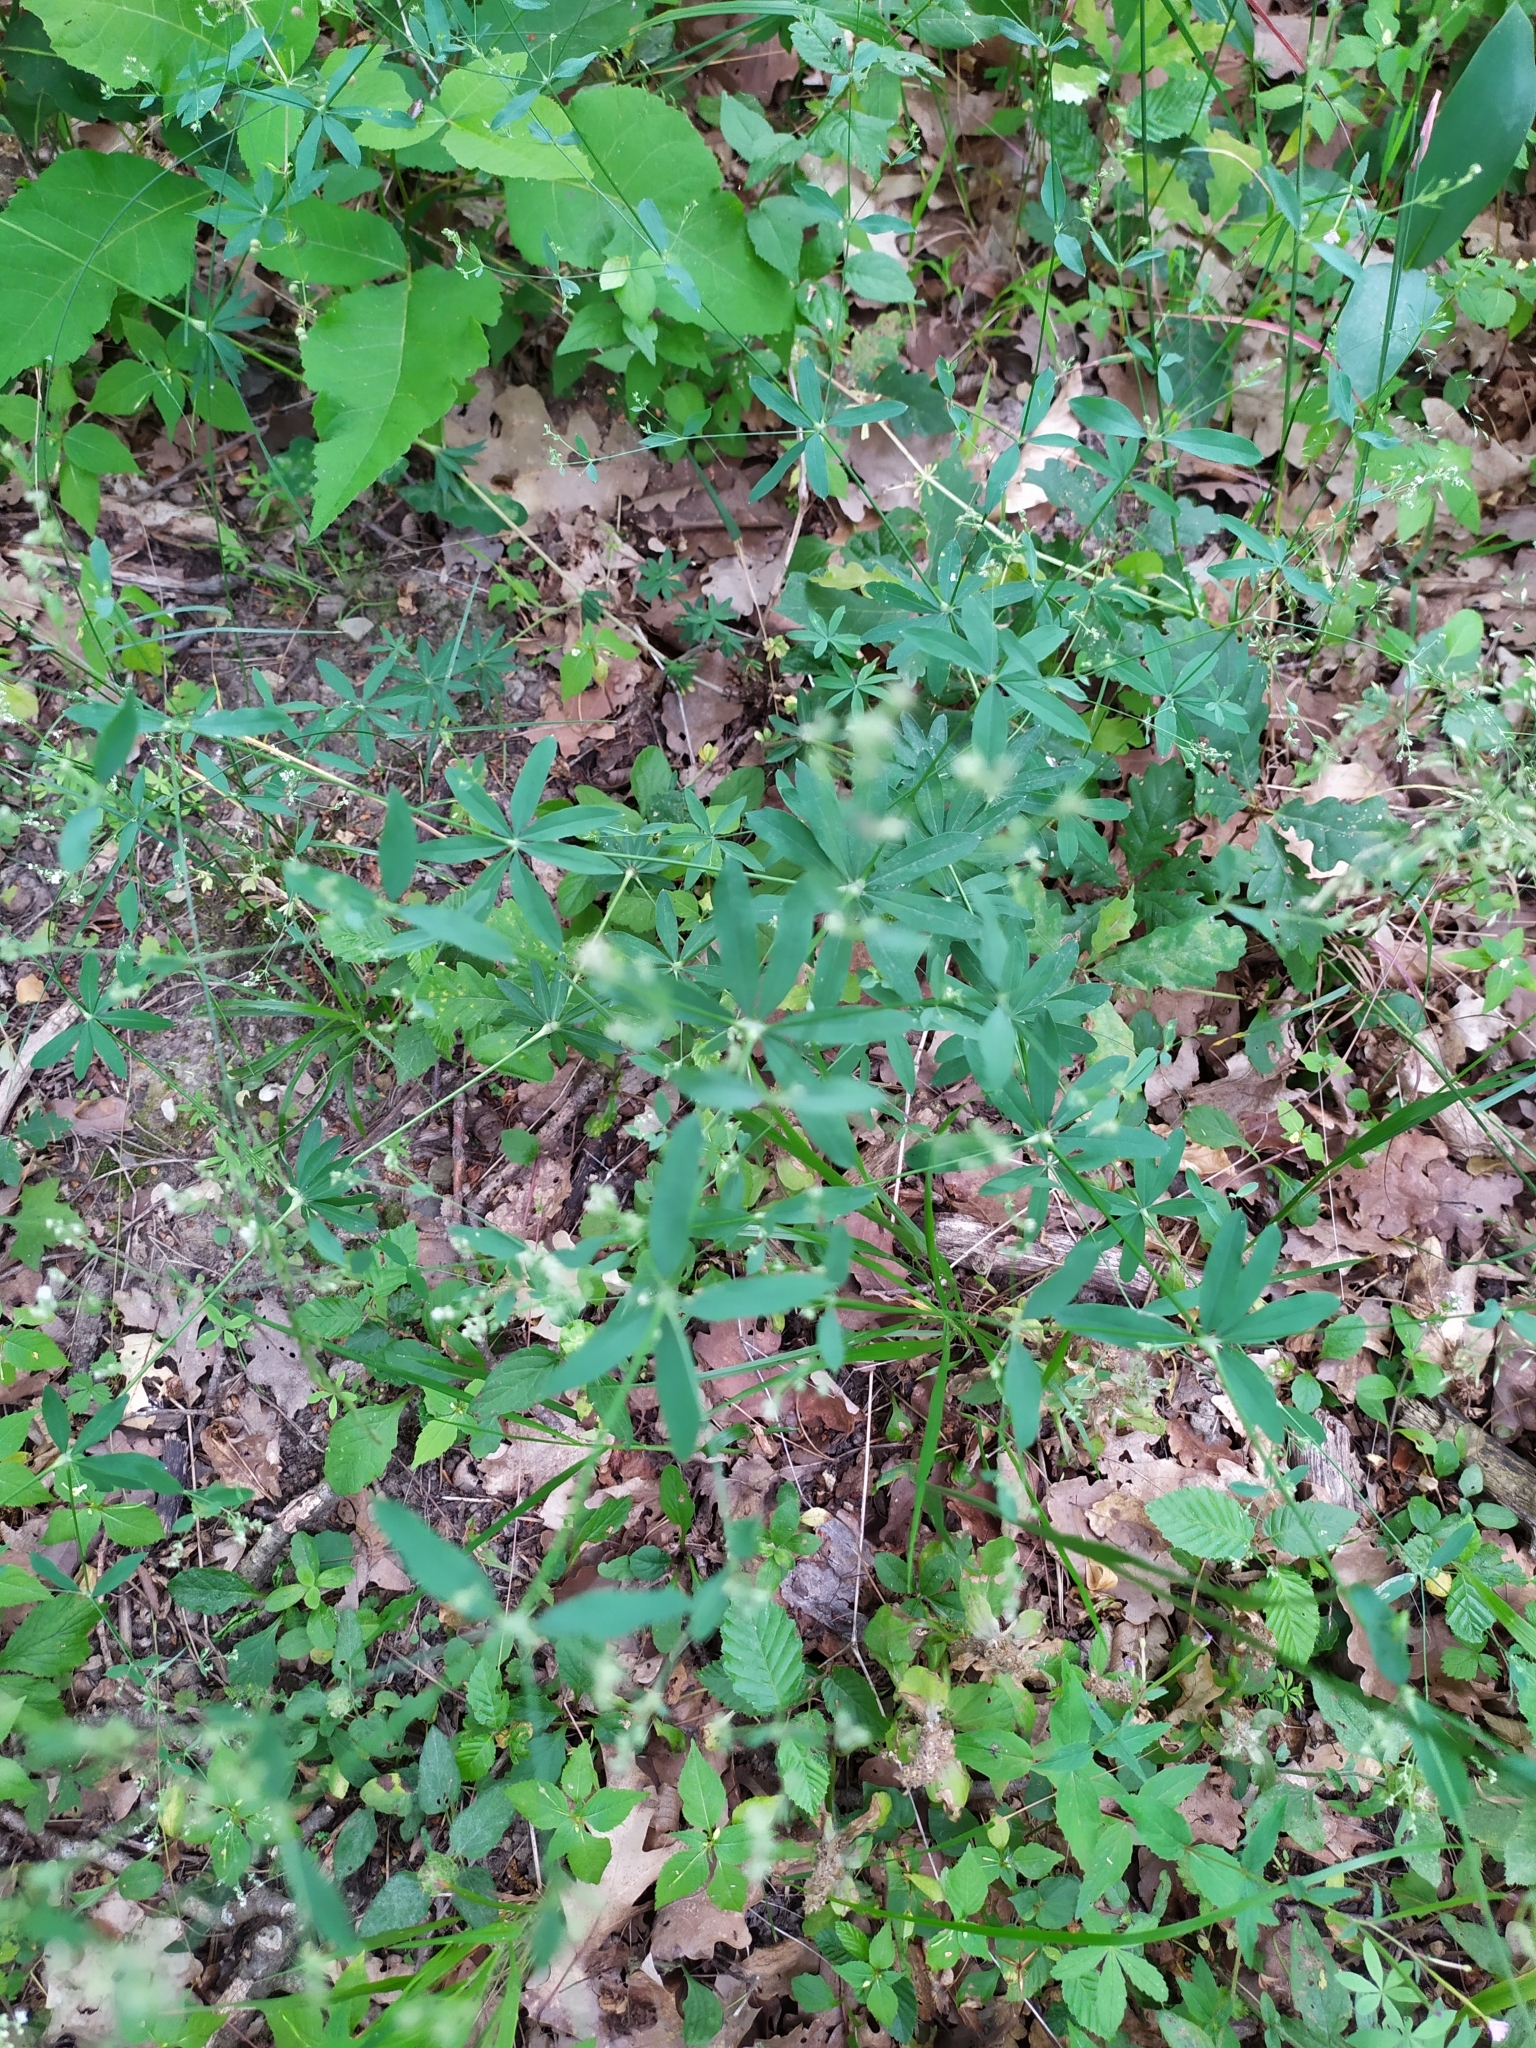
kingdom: Plantae
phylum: Tracheophyta
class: Magnoliopsida
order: Gentianales
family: Rubiaceae
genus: Galium
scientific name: Galium sylvaticum
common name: Wood bedstraw
